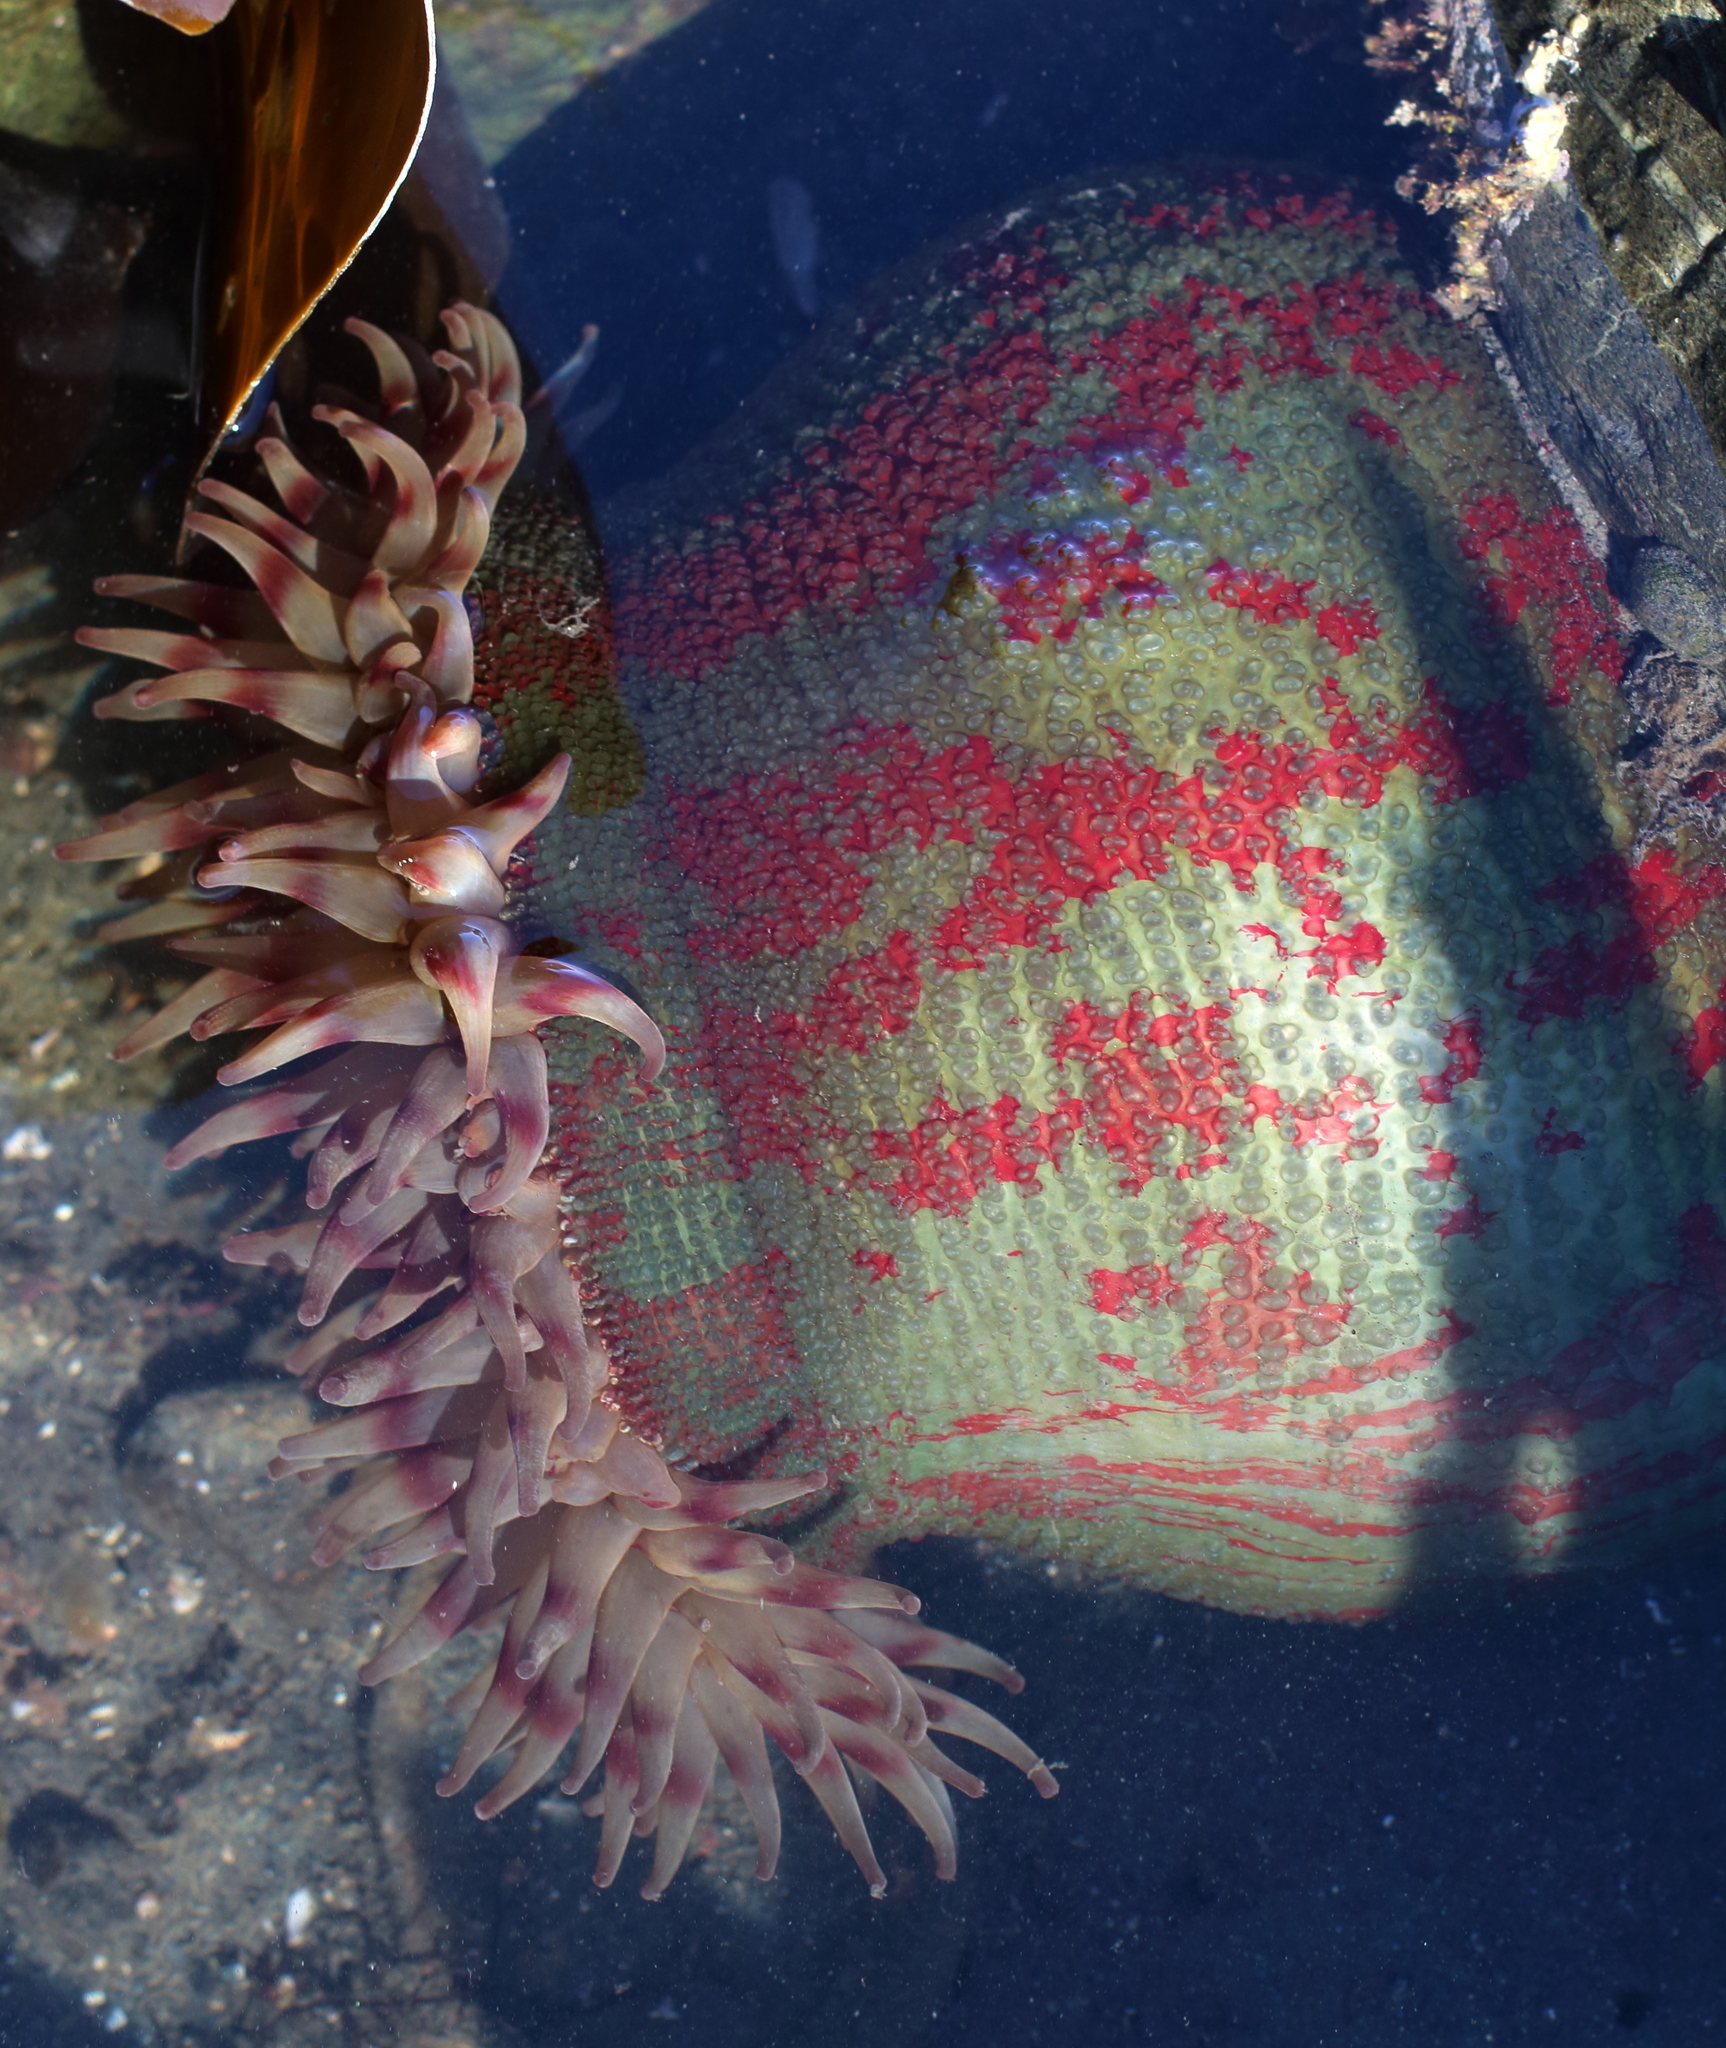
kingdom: Animalia
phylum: Cnidaria
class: Anthozoa
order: Actiniaria
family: Actiniidae
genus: Urticina
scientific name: Urticina grebelnyi
